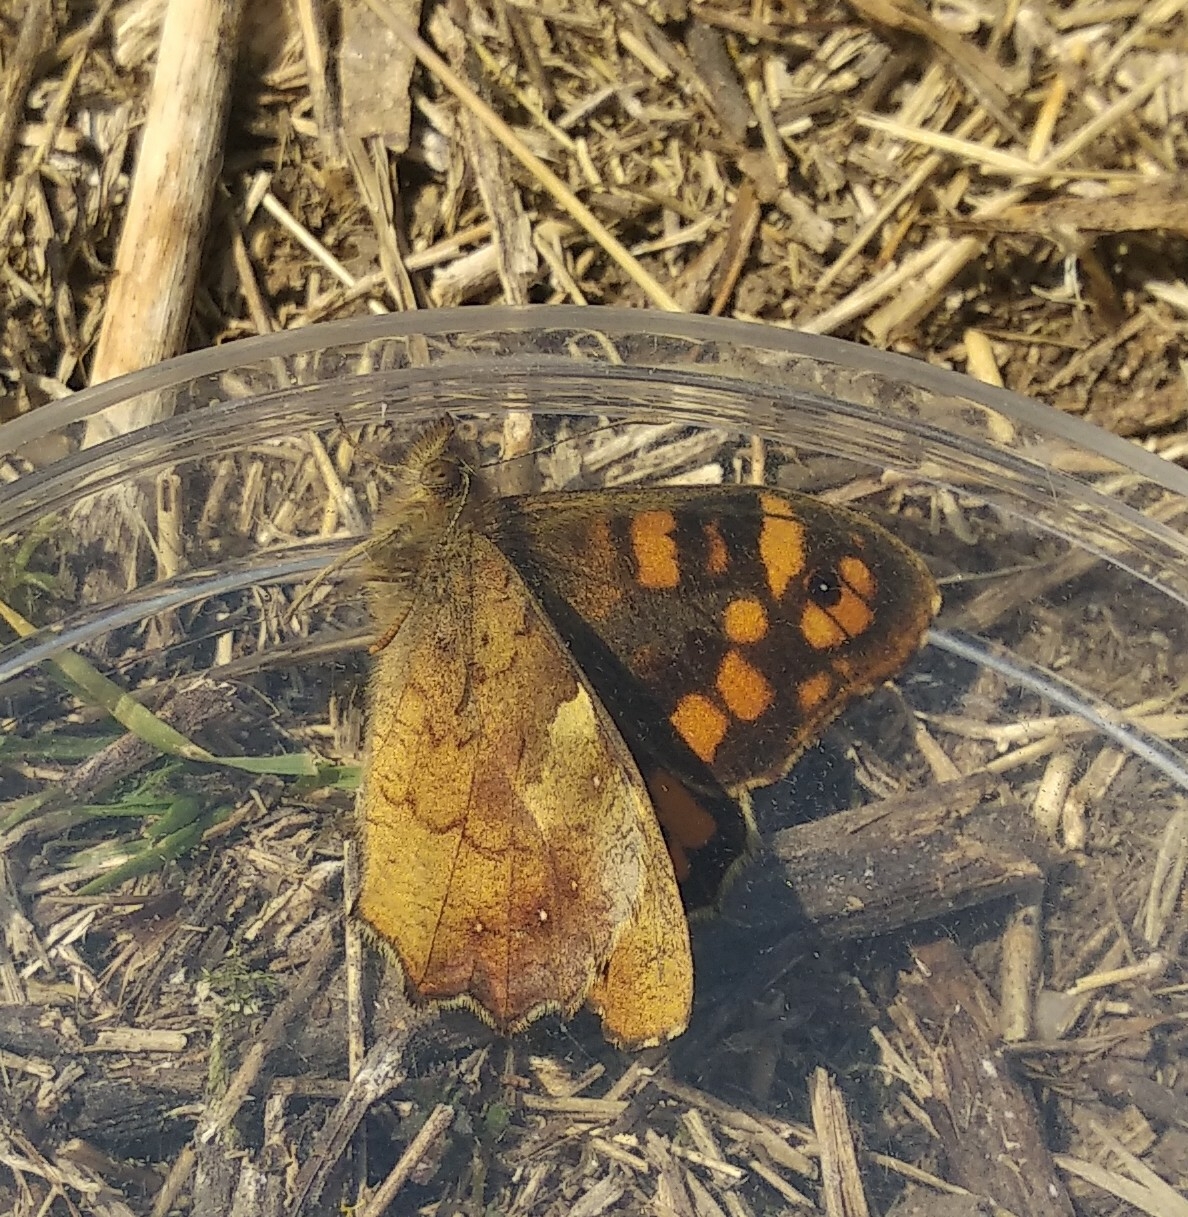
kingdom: Animalia
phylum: Arthropoda
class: Insecta
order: Lepidoptera
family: Nymphalidae
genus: Pararge
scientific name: Pararge aegeria
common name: Speckled wood
